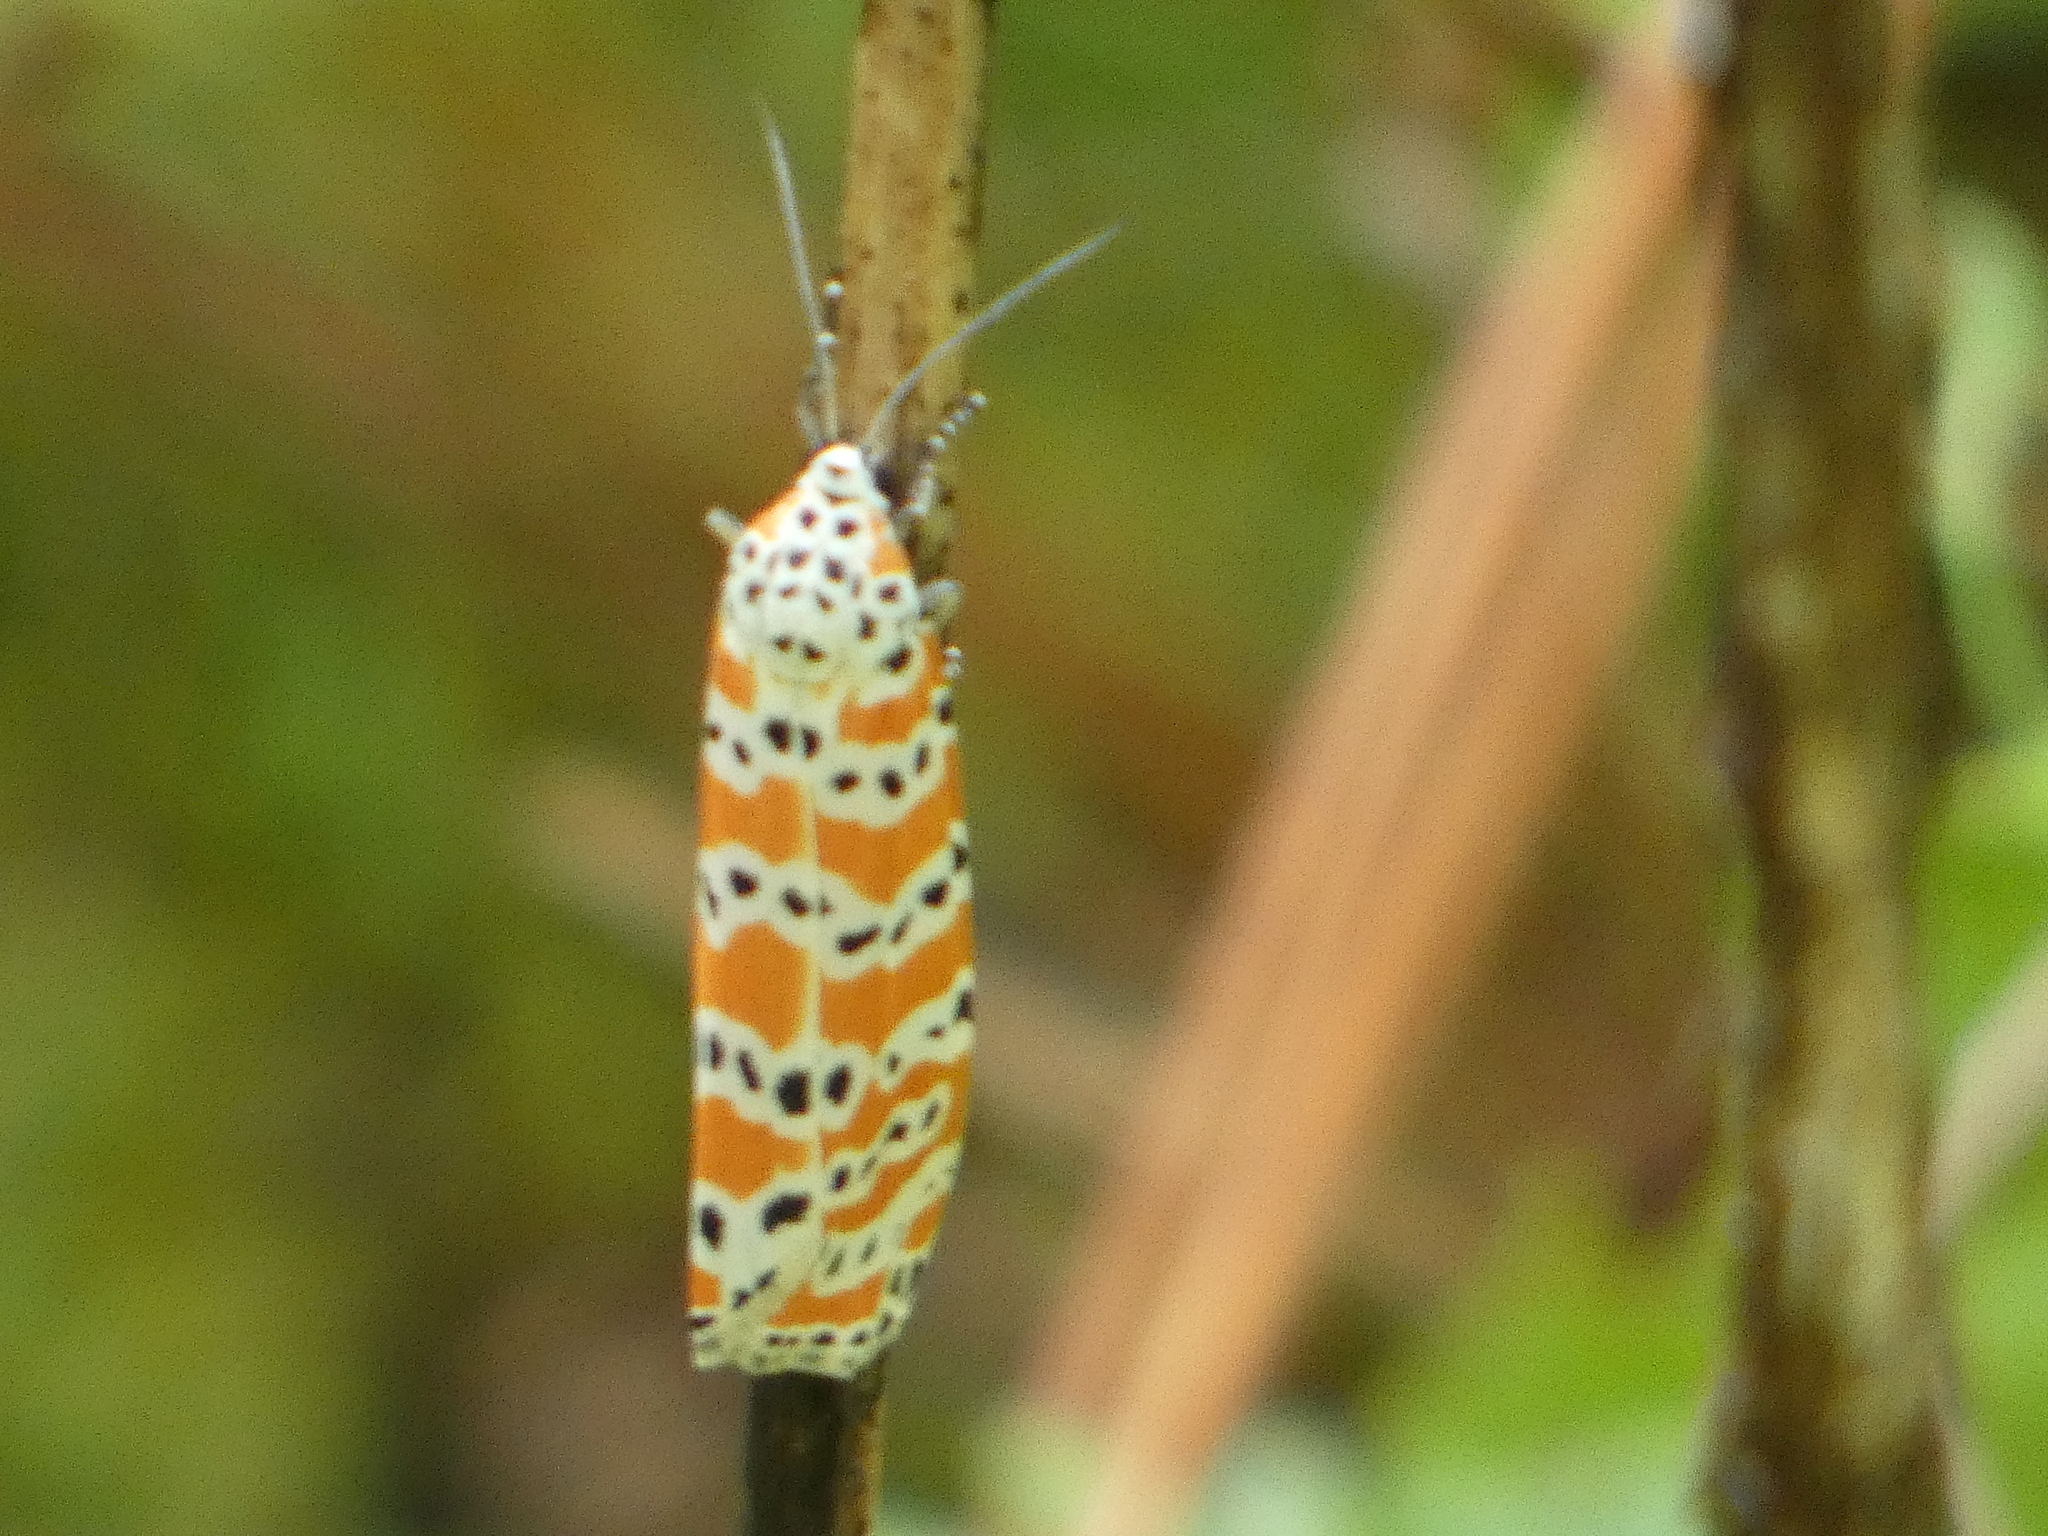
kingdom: Animalia
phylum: Arthropoda
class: Insecta
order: Lepidoptera
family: Erebidae
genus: Utetheisa
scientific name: Utetheisa ornatrix
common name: Beautiful utetheisa
